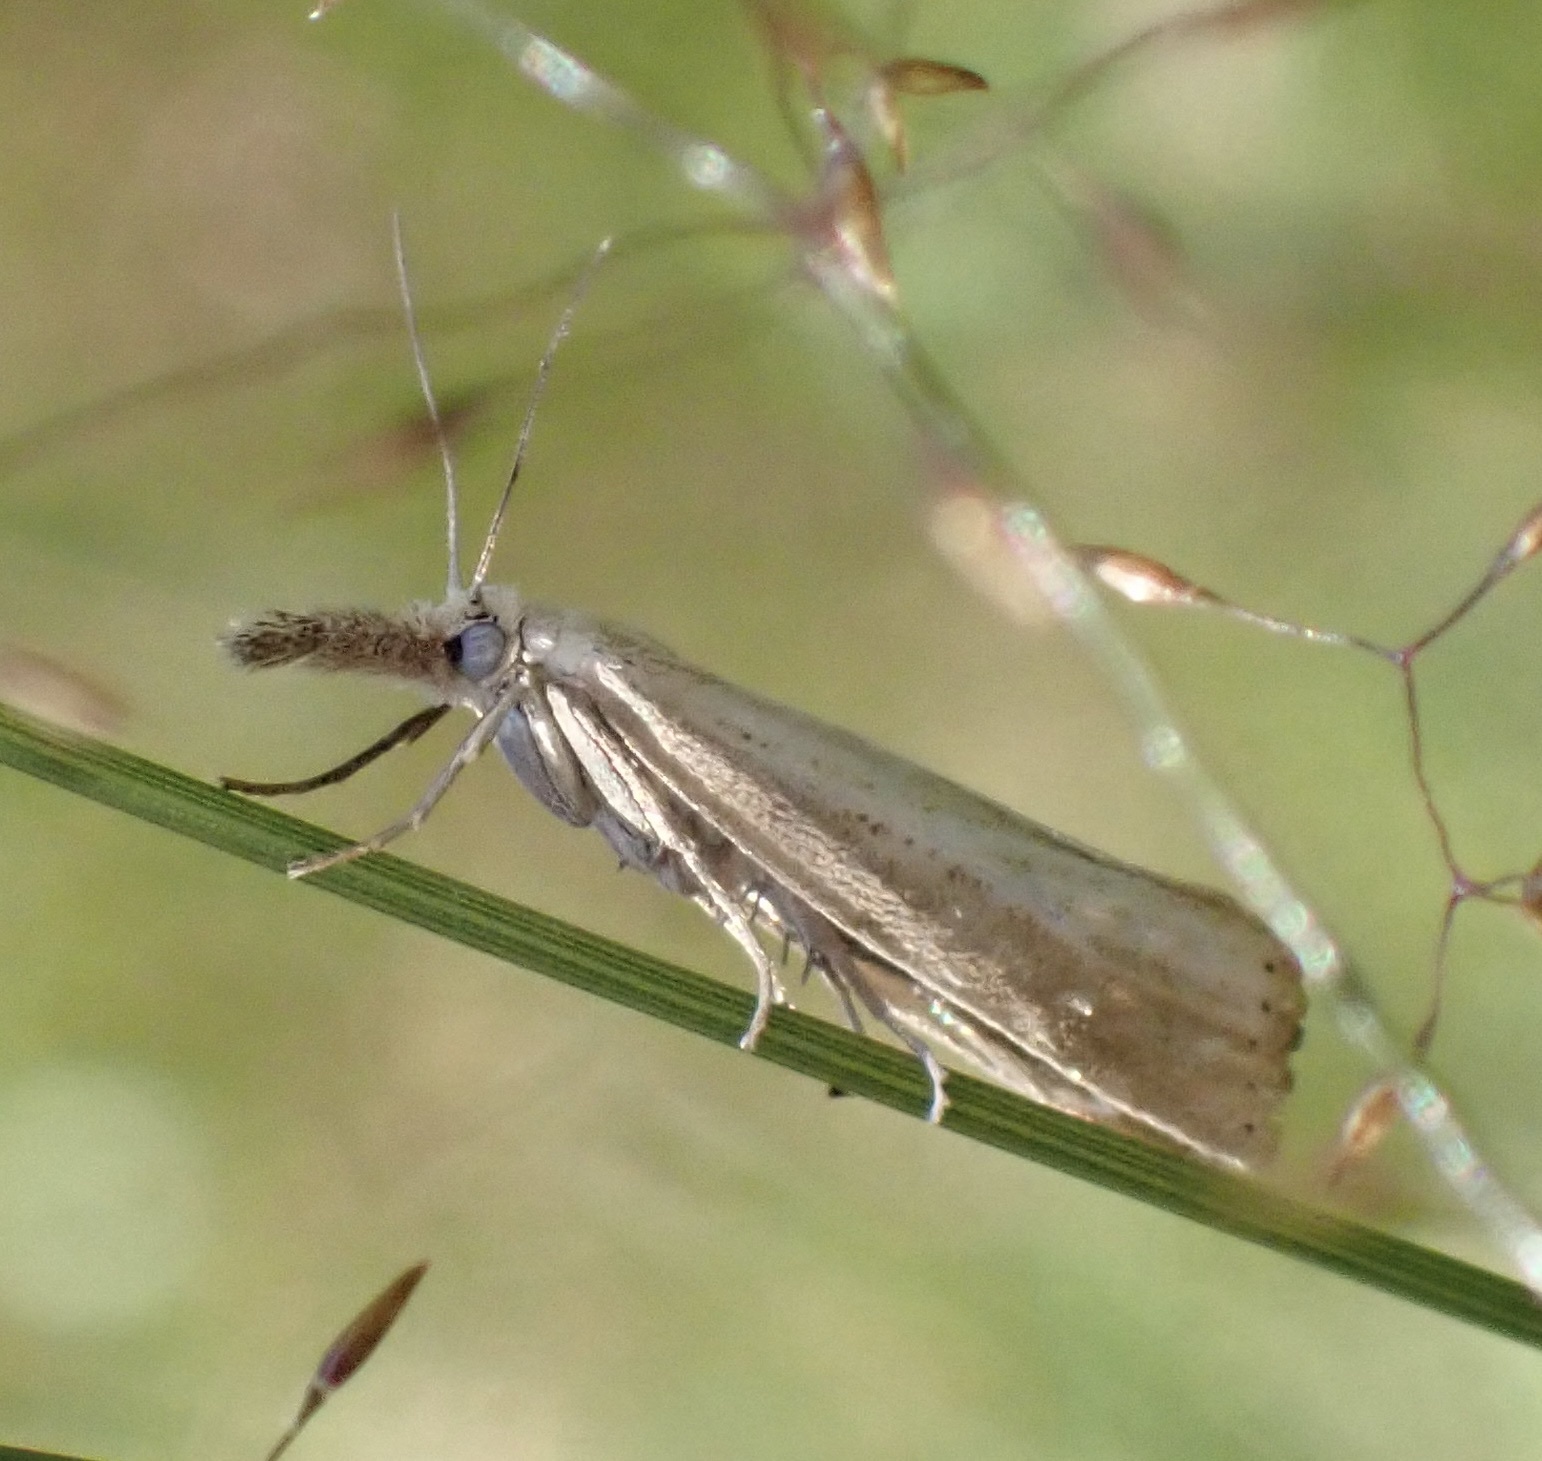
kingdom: Animalia
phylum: Arthropoda
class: Insecta
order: Lepidoptera
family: Crambidae
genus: Agriphila
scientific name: Agriphila straminella
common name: Straw grass-veneer
